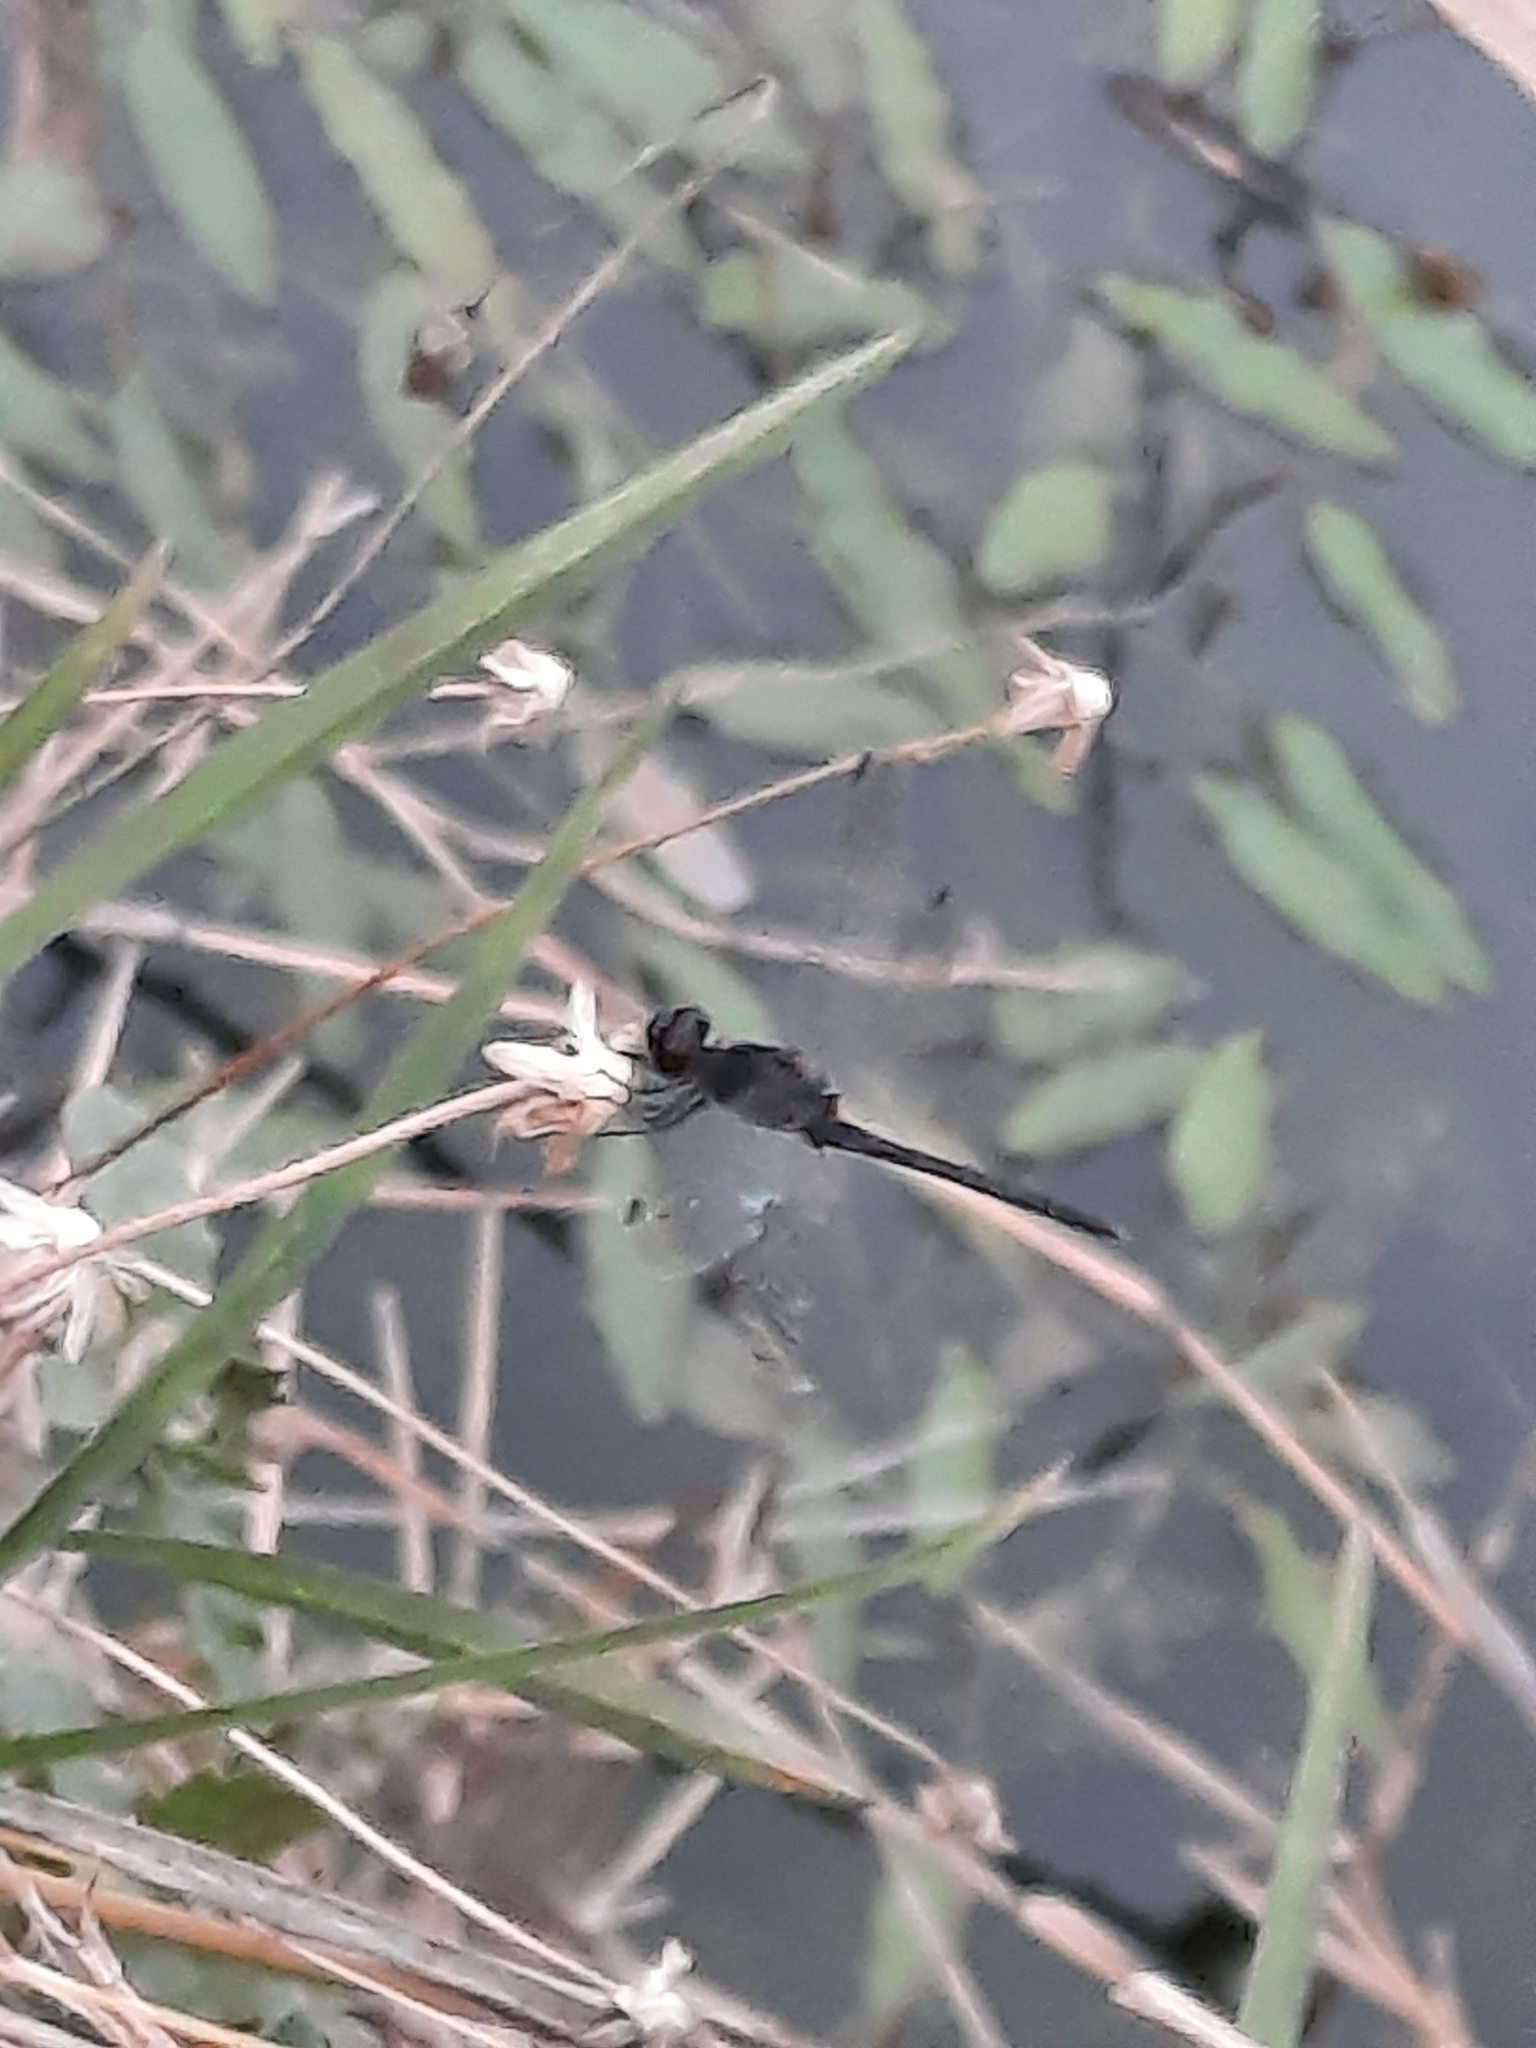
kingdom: Animalia
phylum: Arthropoda
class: Insecta
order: Odonata
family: Libellulidae
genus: Diplacodes
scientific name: Diplacodes lefebvrii
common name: Black percher
